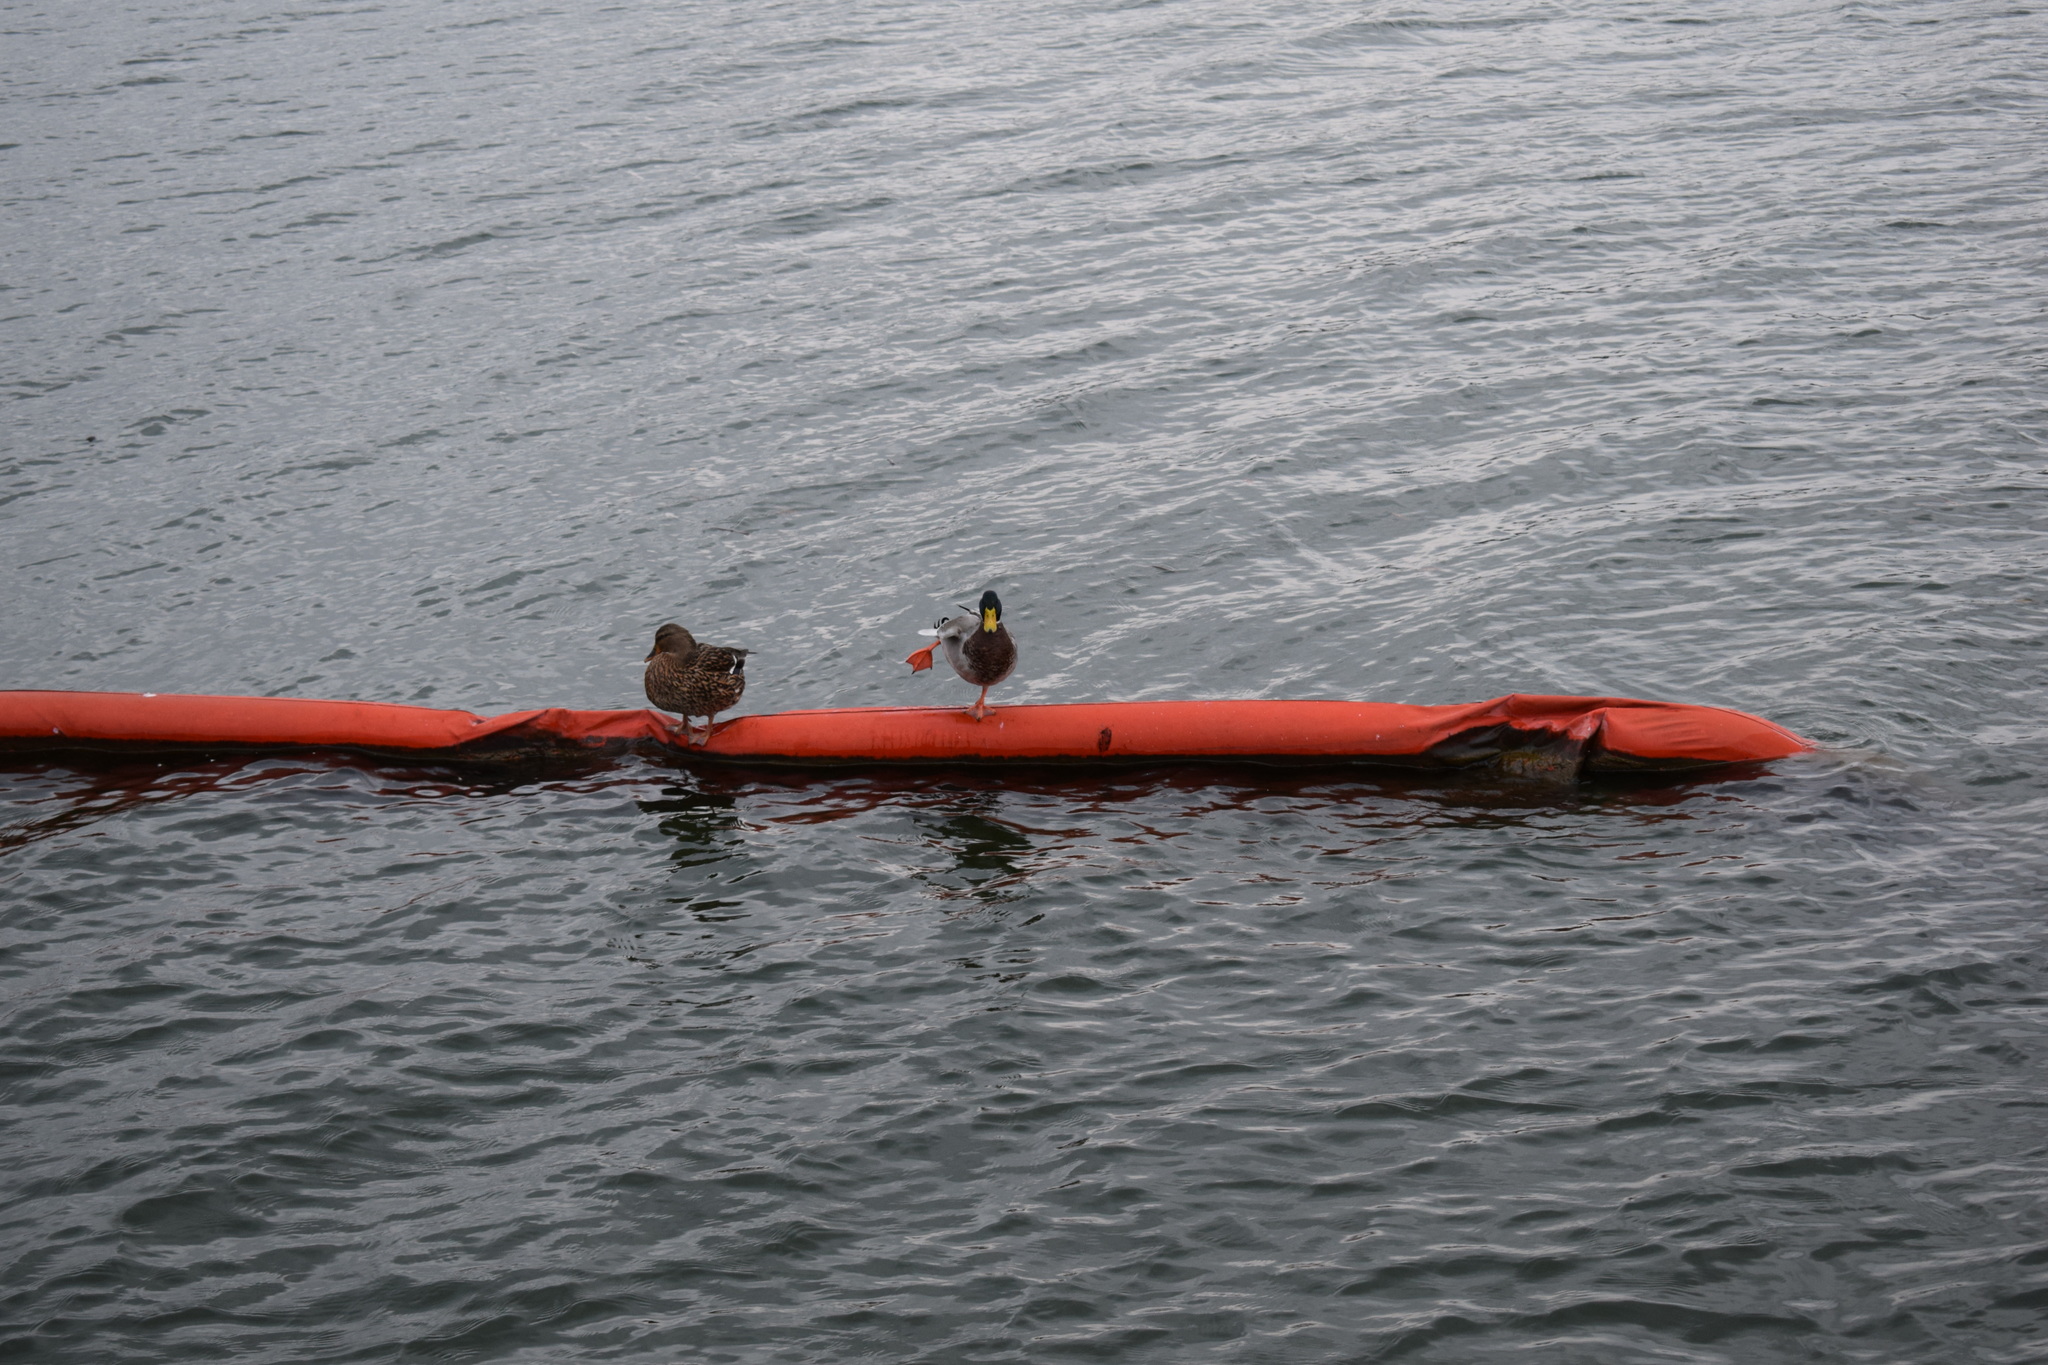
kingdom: Animalia
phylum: Chordata
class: Aves
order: Anseriformes
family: Anatidae
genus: Anas
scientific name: Anas platyrhynchos
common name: Mallard
